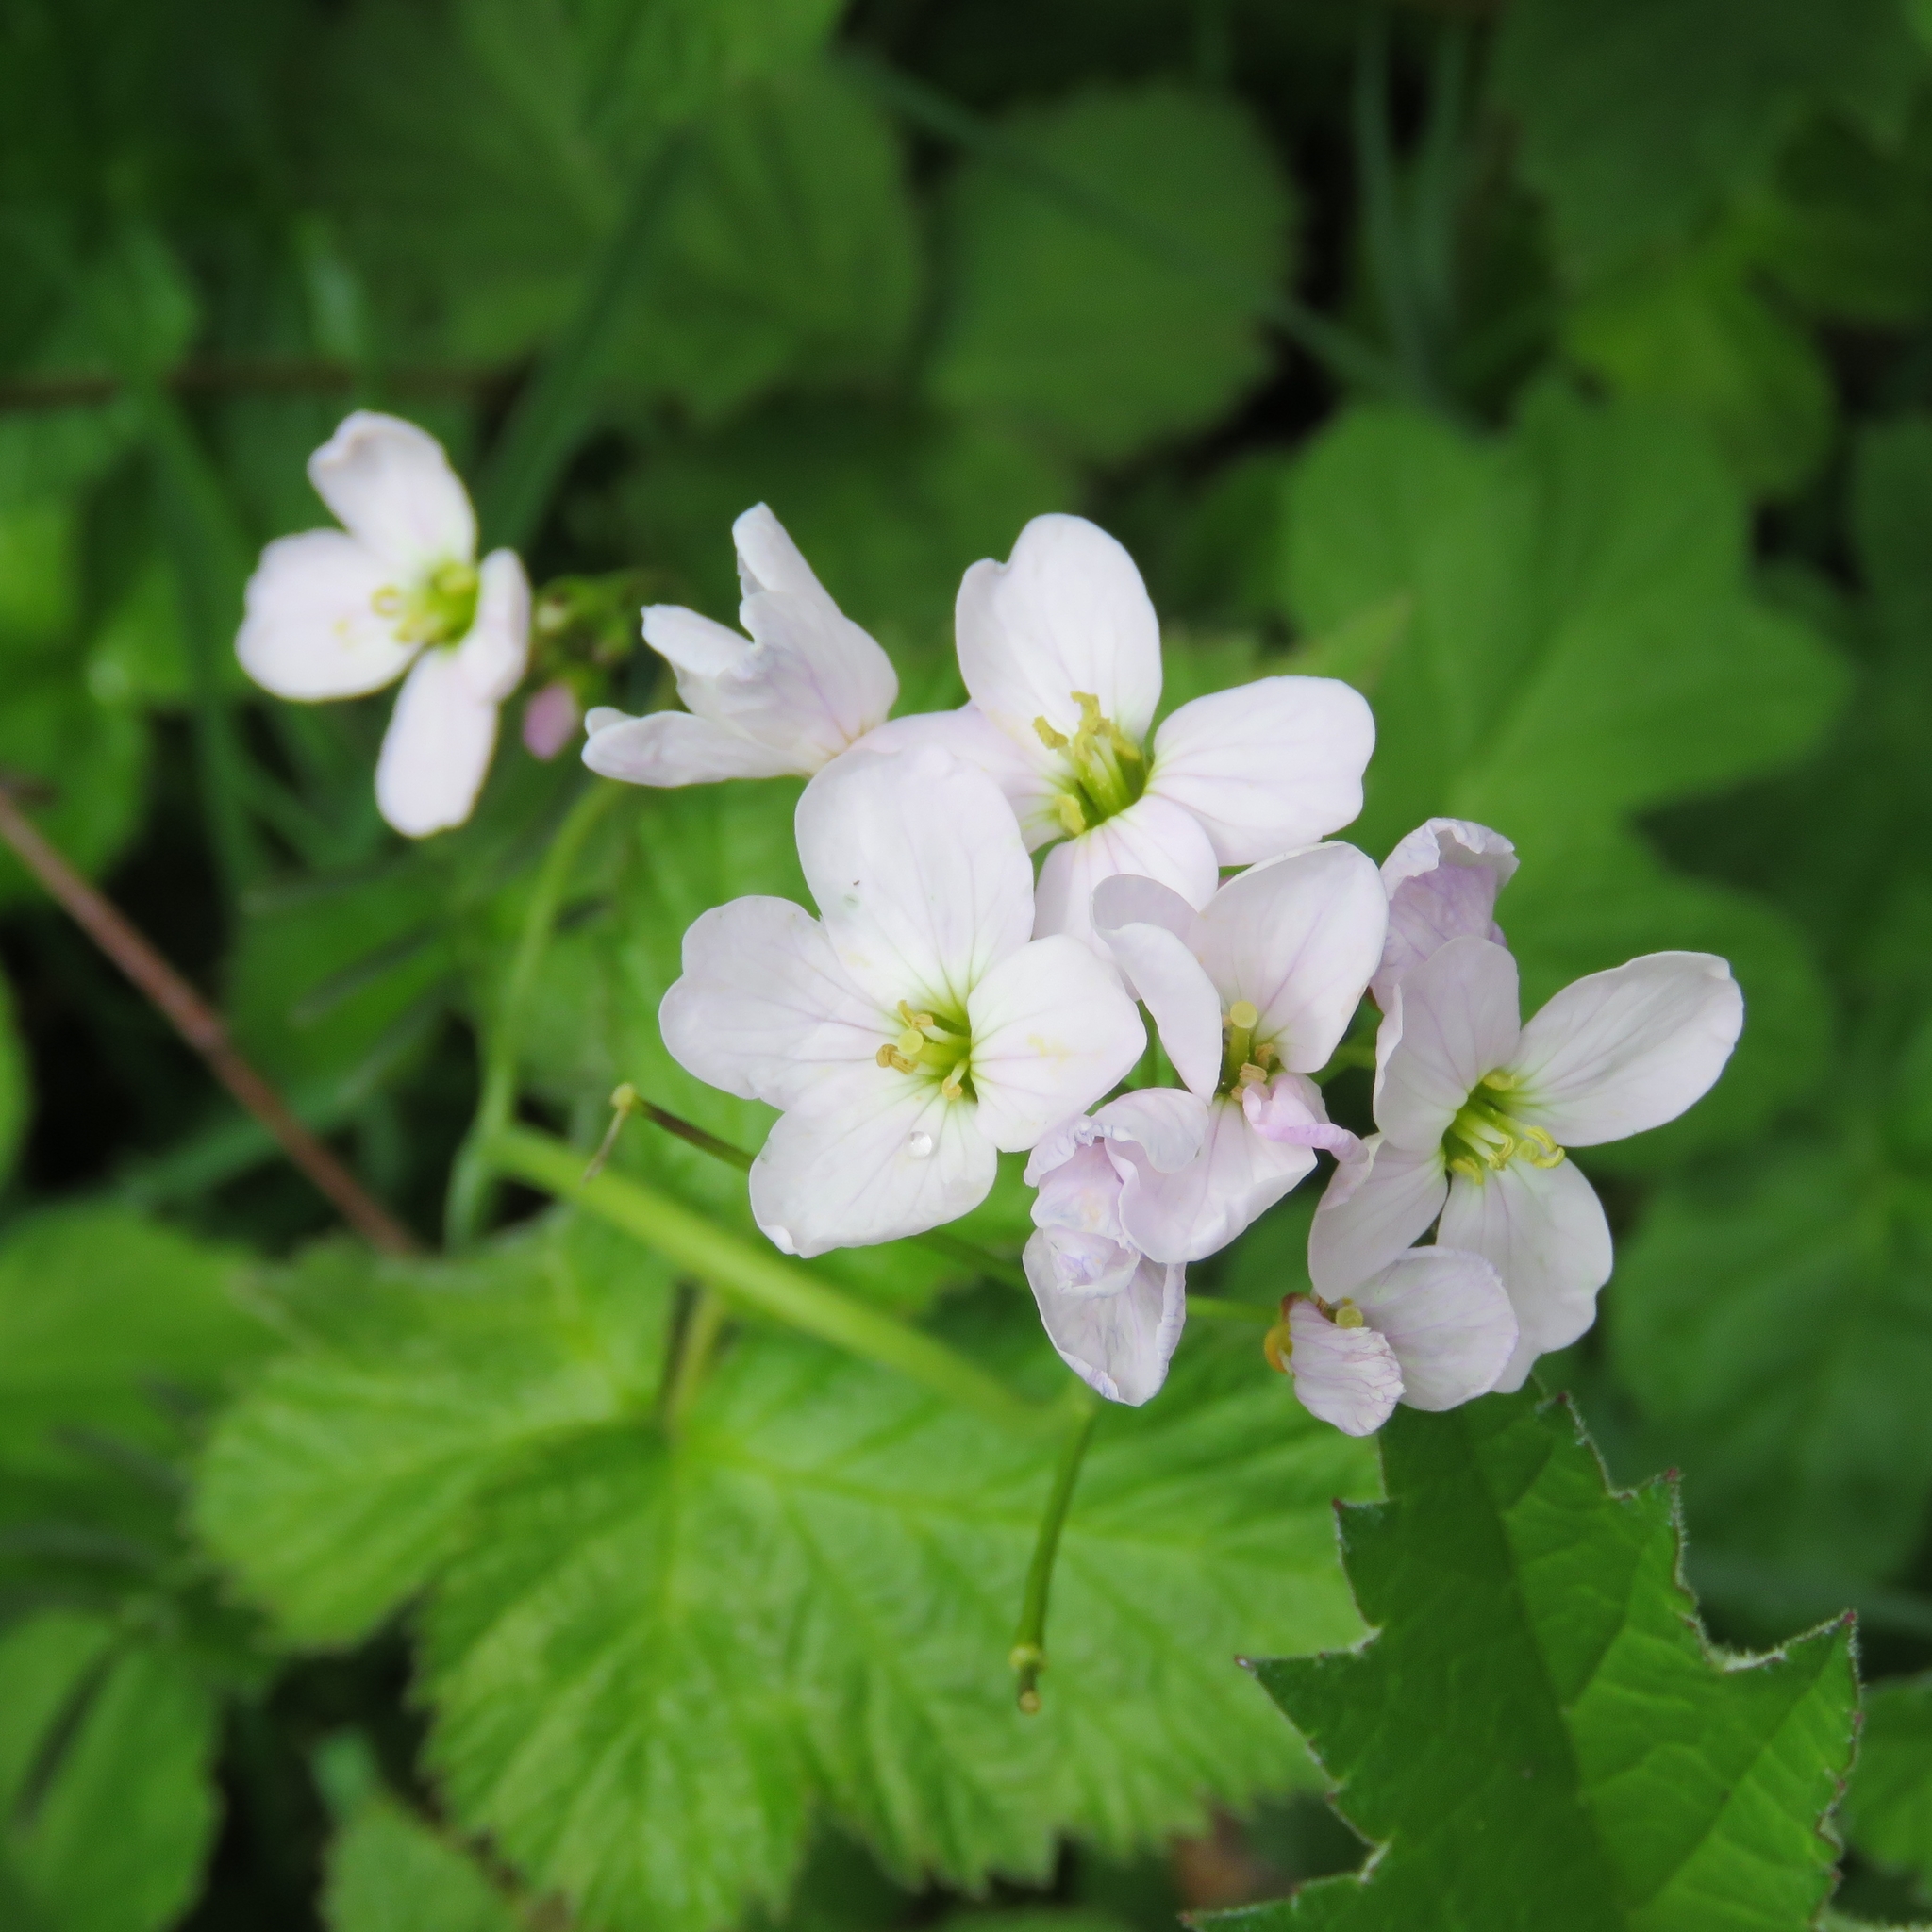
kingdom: Plantae
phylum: Tracheophyta
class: Magnoliopsida
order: Brassicales
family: Brassicaceae
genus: Cardamine
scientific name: Cardamine pratensis
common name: Cuckoo flower
